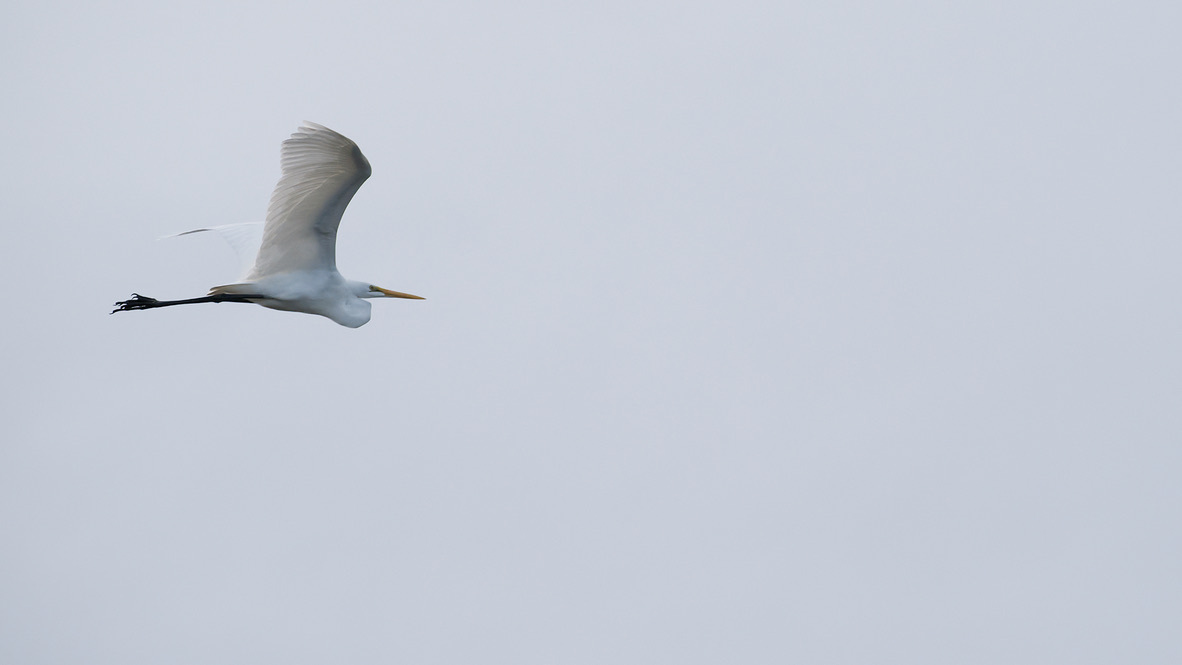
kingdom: Animalia
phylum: Chordata
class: Aves
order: Pelecaniformes
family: Ardeidae
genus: Ardea
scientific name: Ardea alba
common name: Great egret
